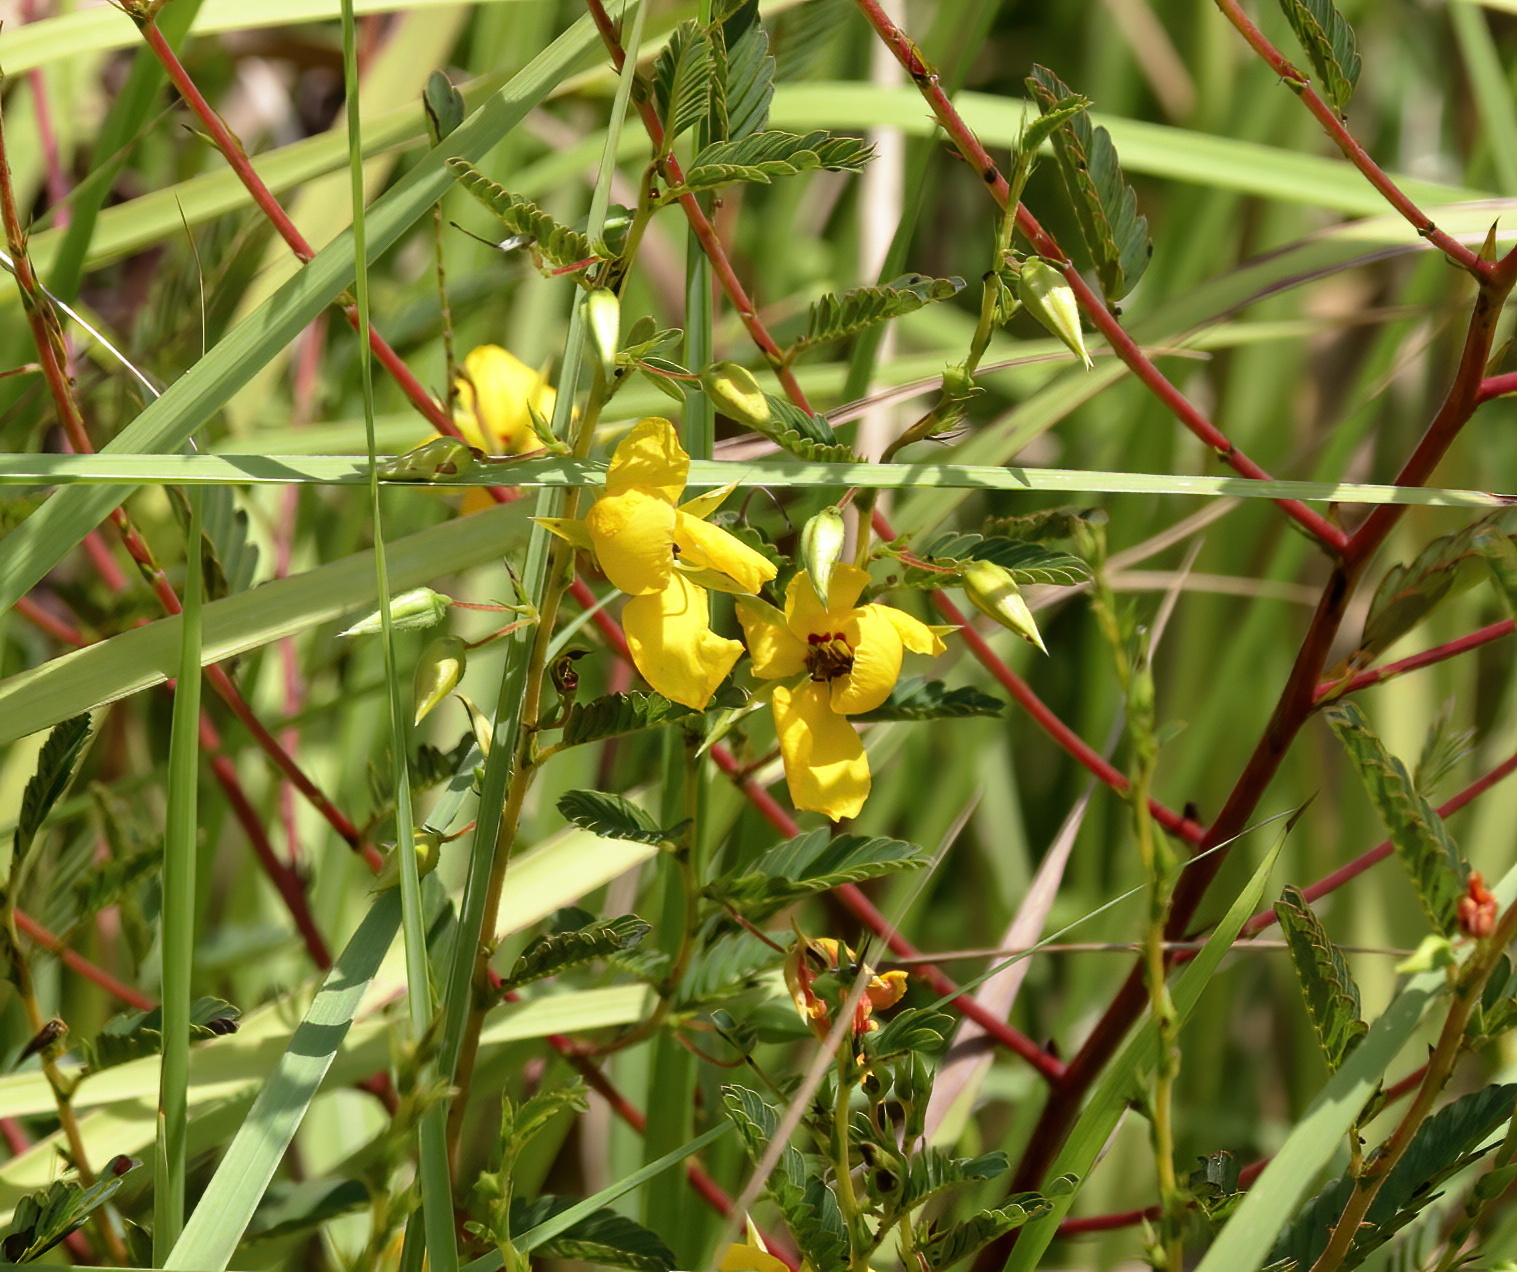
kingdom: Plantae
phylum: Tracheophyta
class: Magnoliopsida
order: Fabales
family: Fabaceae
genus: Chamaecrista
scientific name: Chamaecrista fasciculata
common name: Golden cassia
